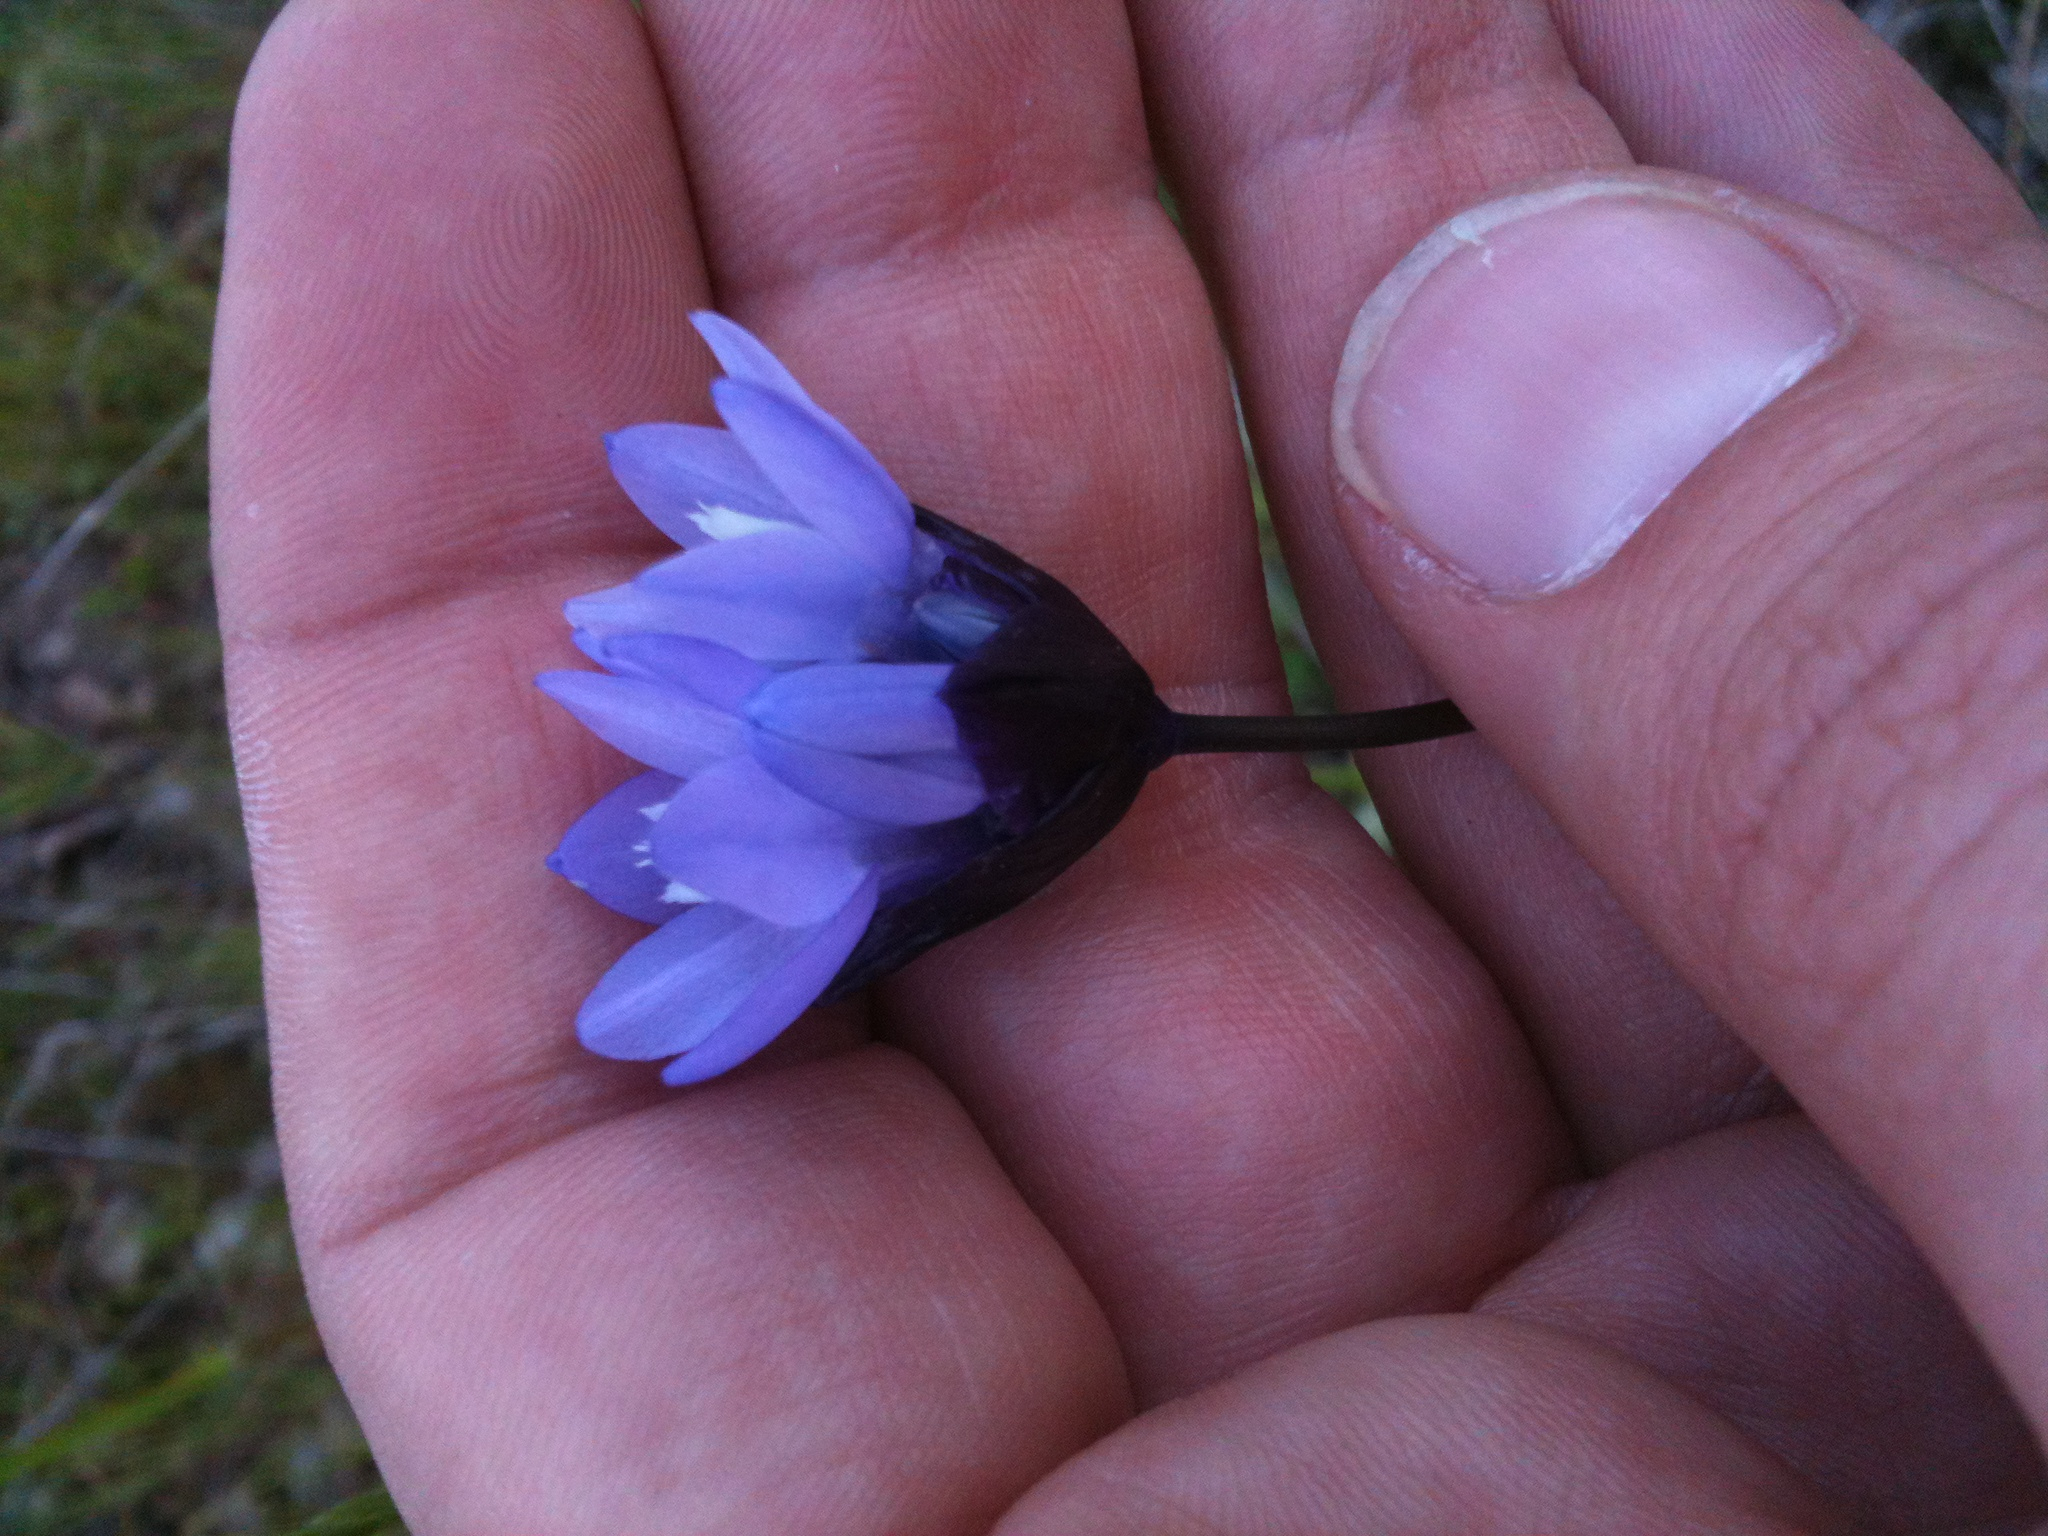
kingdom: Plantae
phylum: Tracheophyta
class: Liliopsida
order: Asparagales
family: Asparagaceae
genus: Dipterostemon
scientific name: Dipterostemon capitatus
